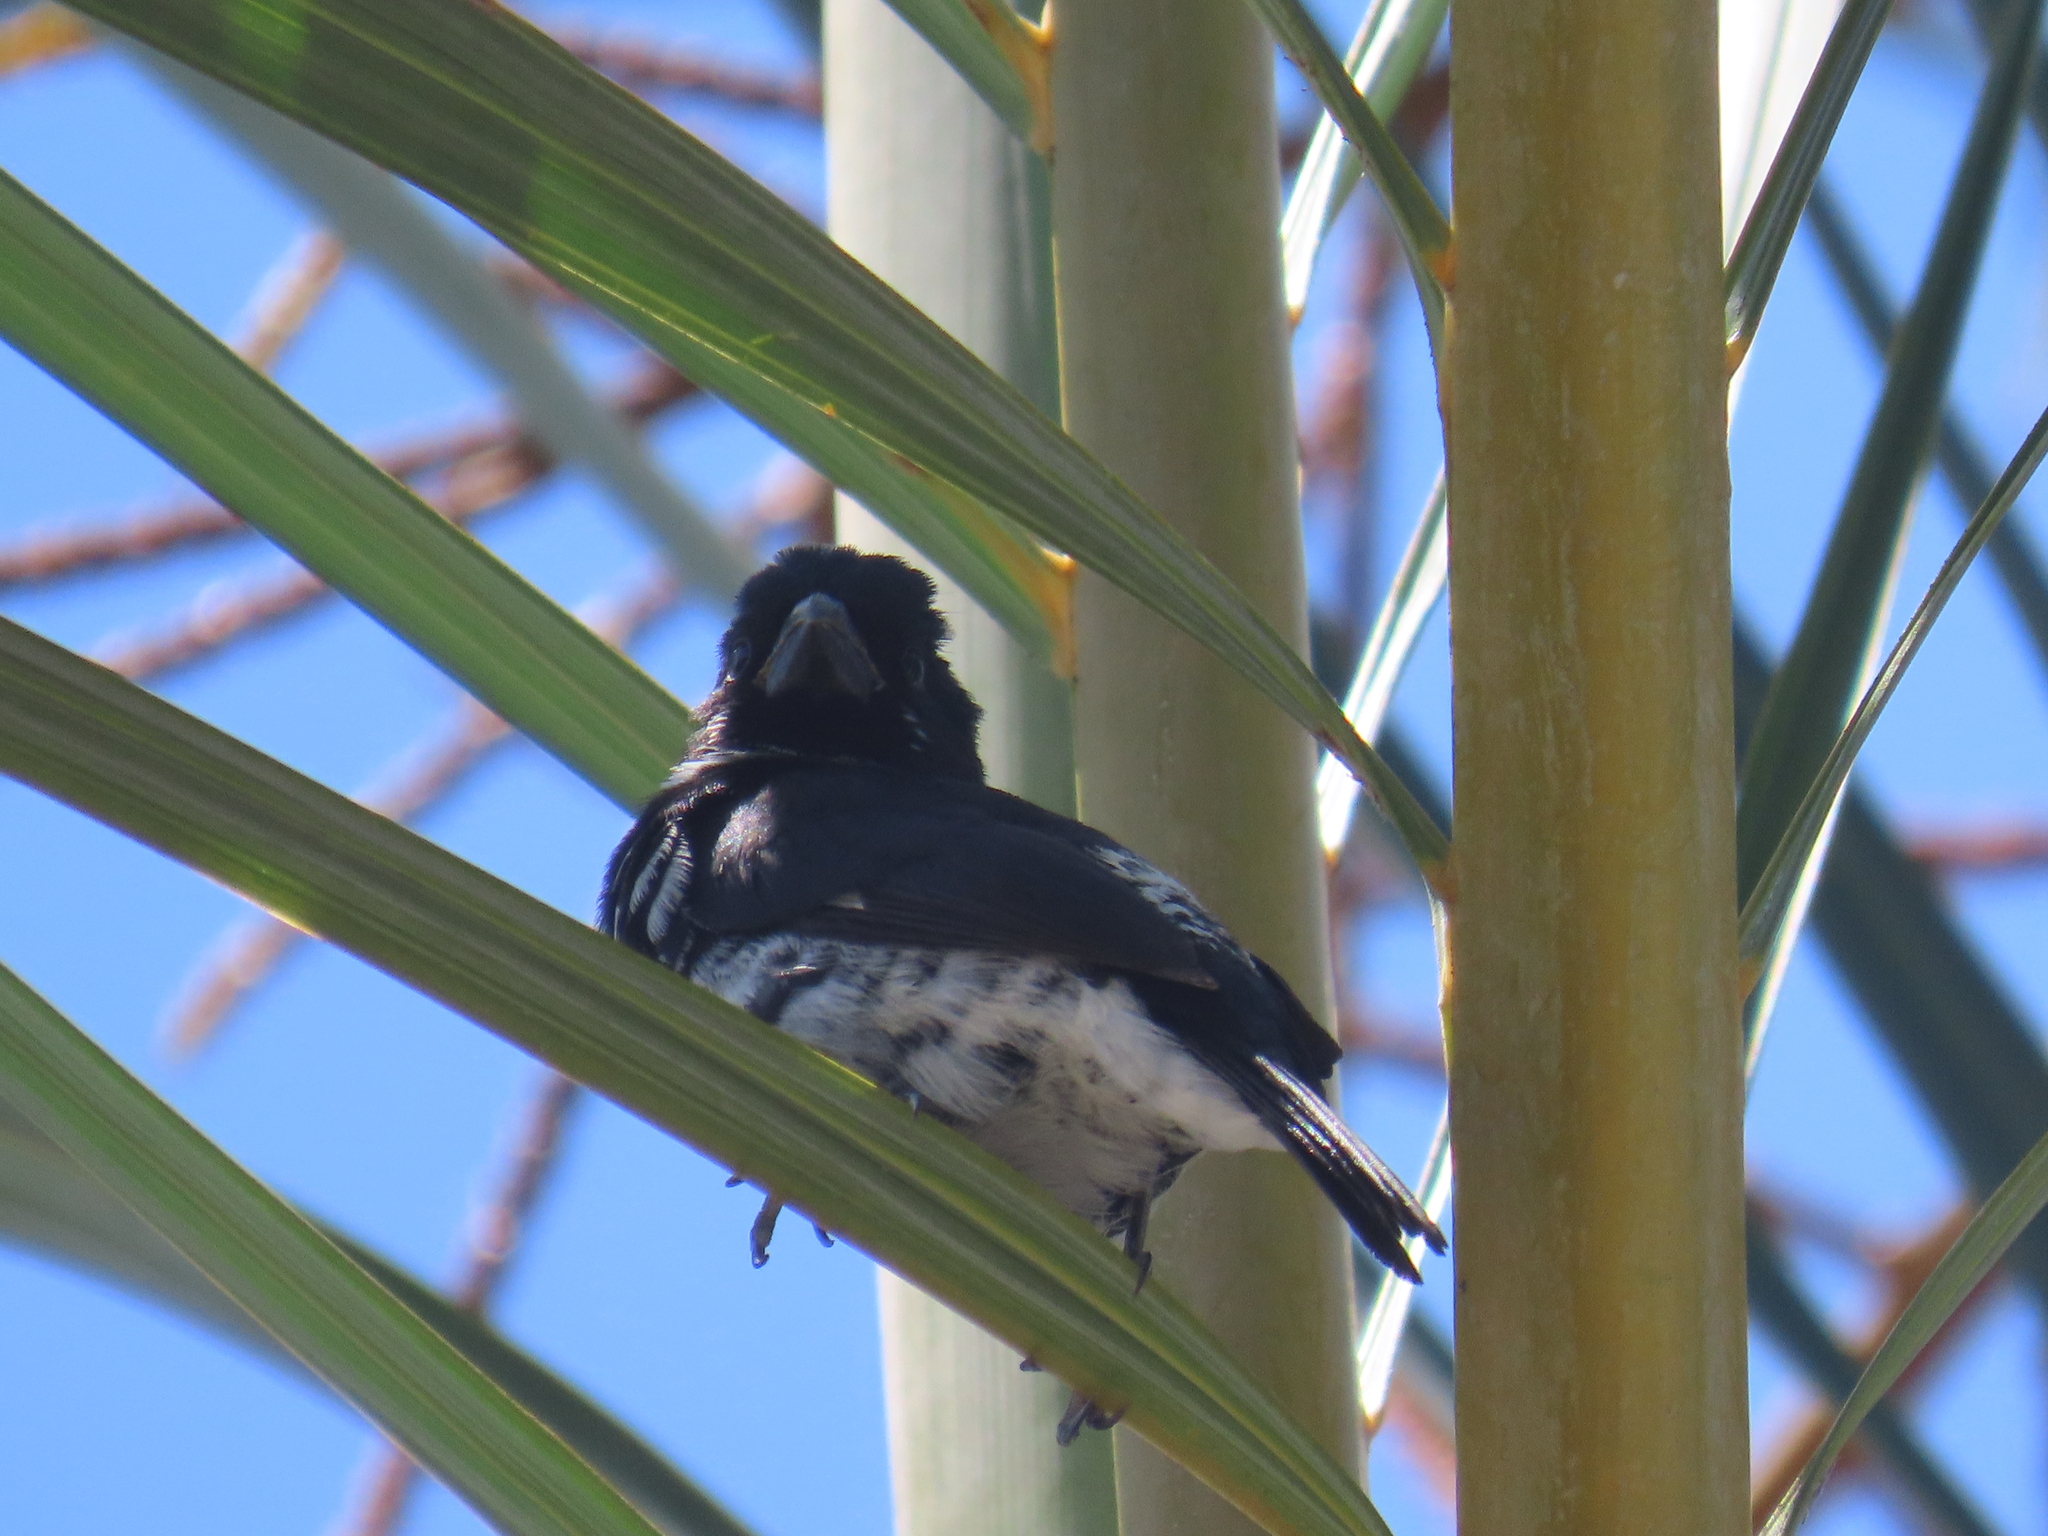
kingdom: Animalia
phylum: Chordata
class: Aves
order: Passeriformes
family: Thraupidae
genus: Sporophila
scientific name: Sporophila corvina
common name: Variable seedeater
